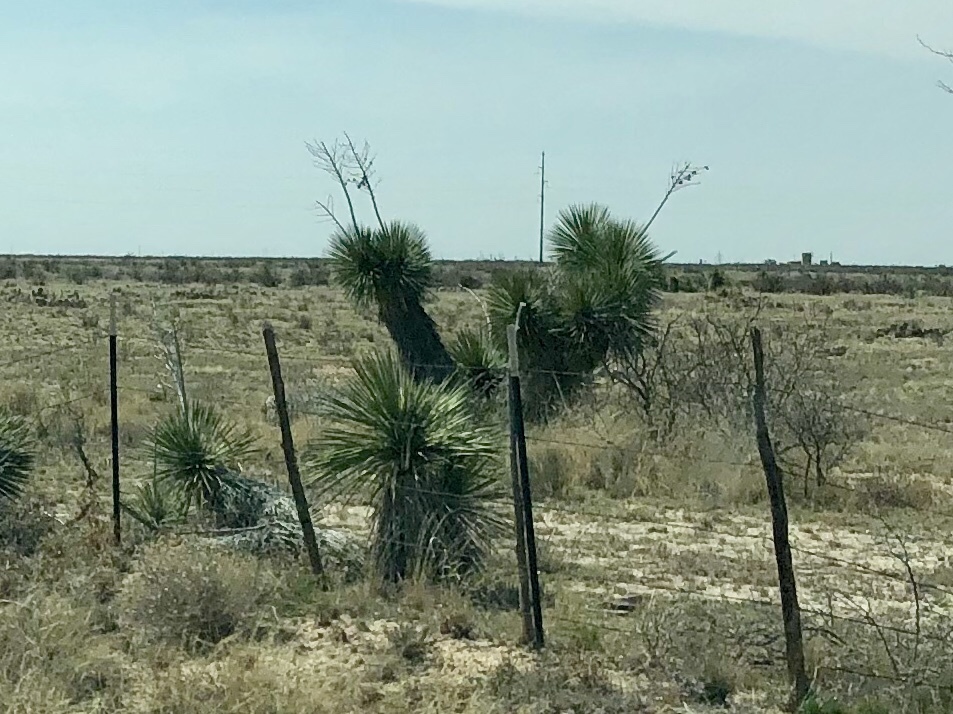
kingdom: Plantae
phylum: Tracheophyta
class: Liliopsida
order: Asparagales
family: Asparagaceae
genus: Yucca
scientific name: Yucca elata
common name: Palmella
